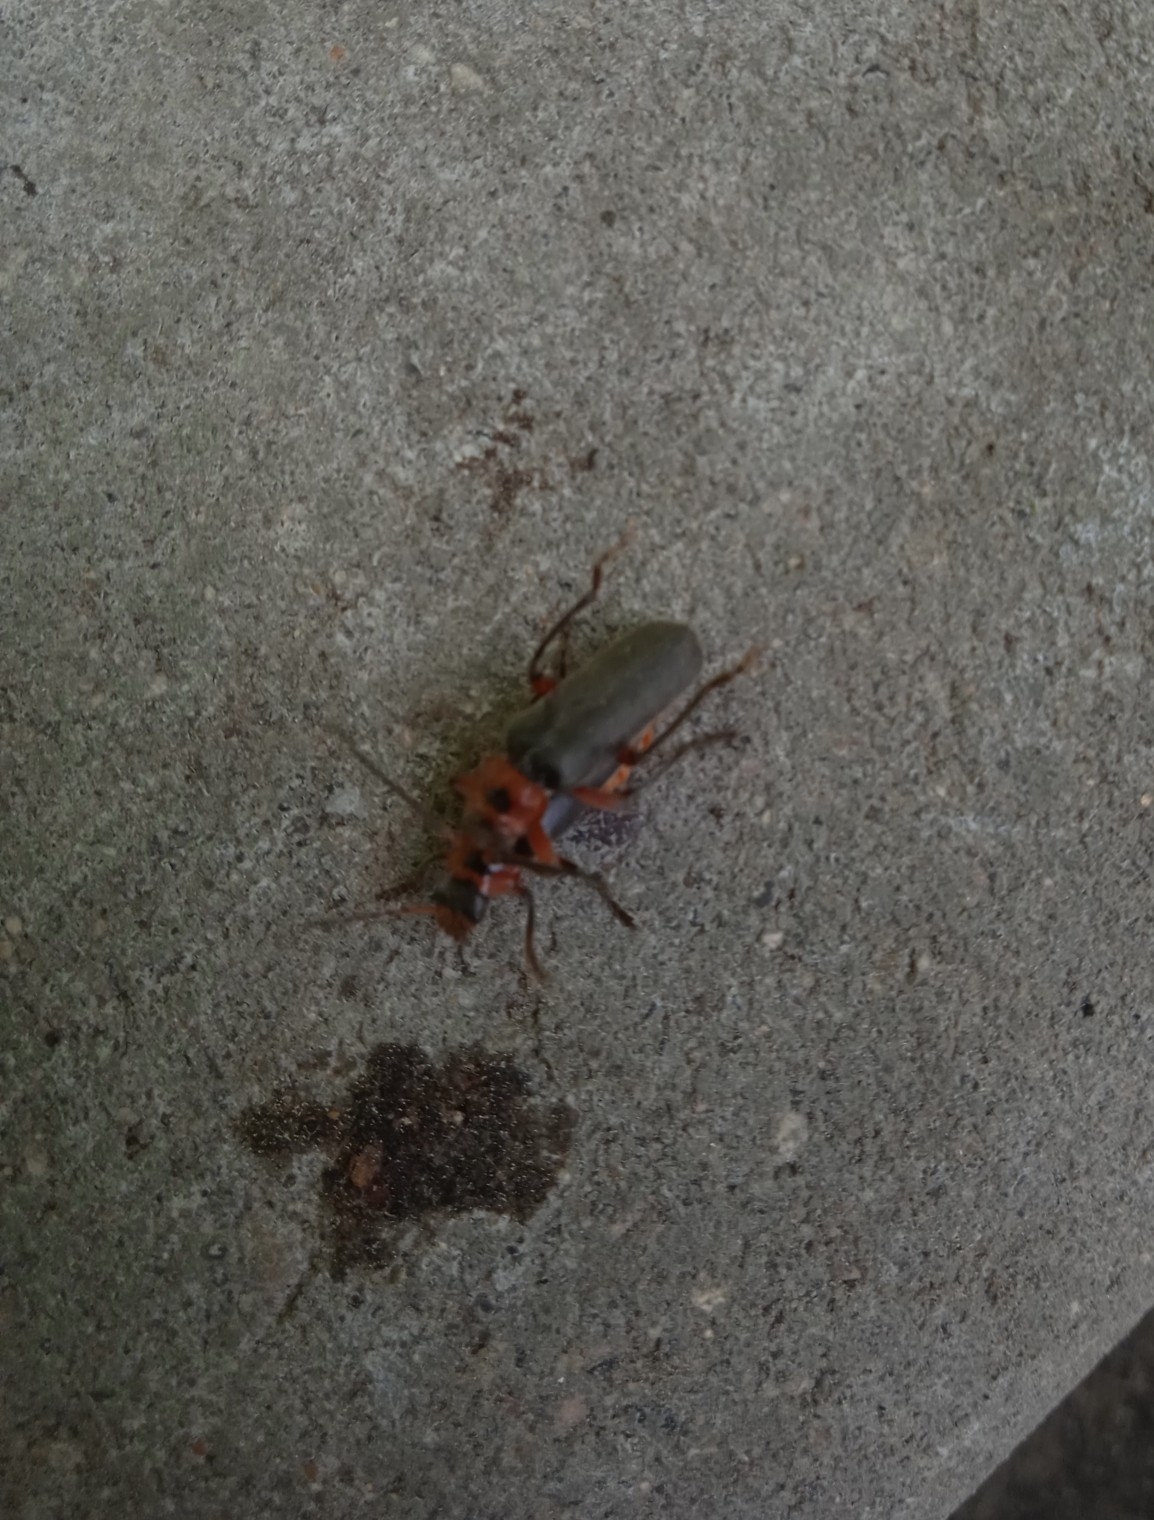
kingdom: Animalia
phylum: Arthropoda
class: Insecta
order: Coleoptera
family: Cantharidae
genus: Cantharis
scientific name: Cantharis rustica
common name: Soldier beetle
